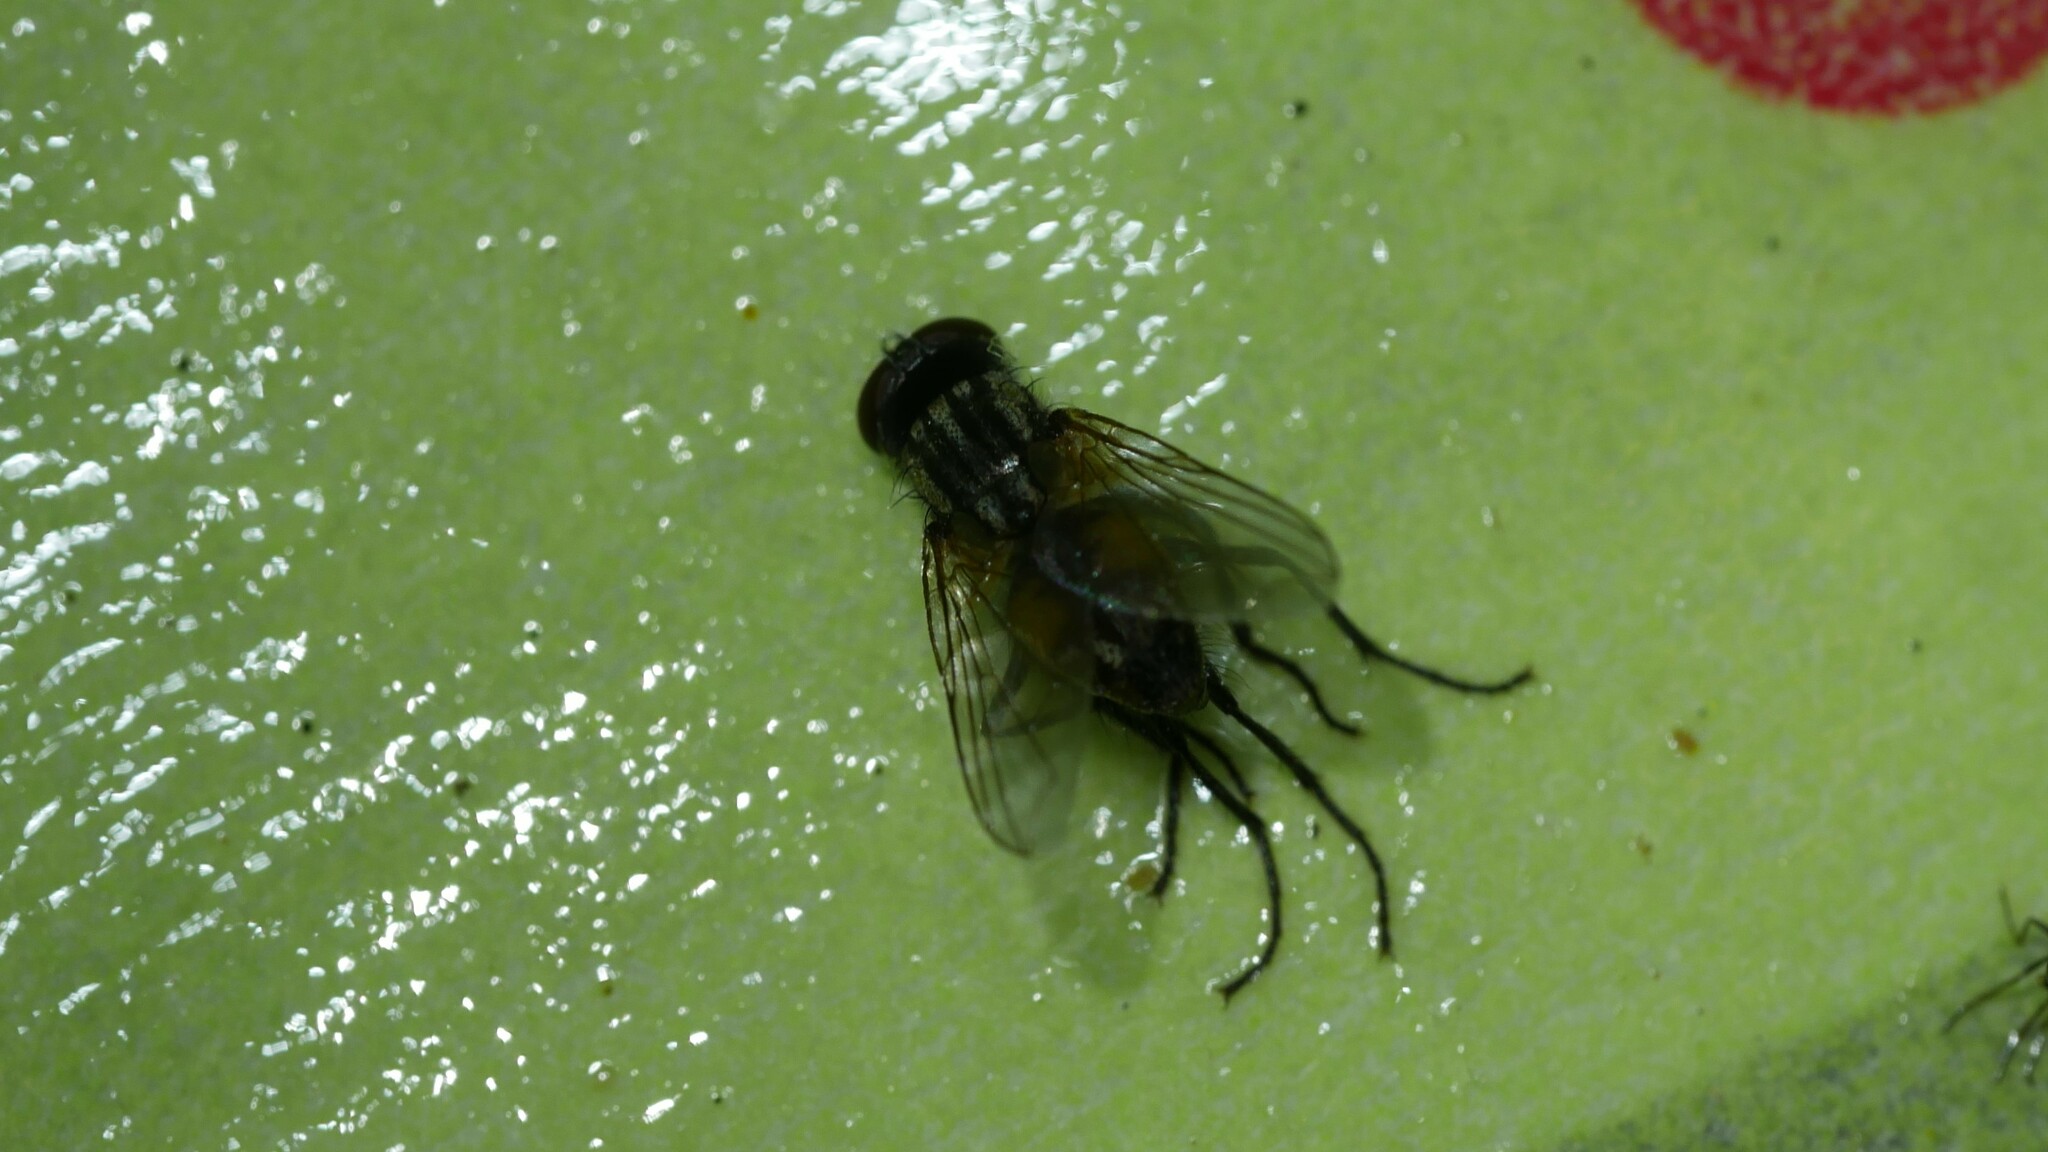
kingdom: Animalia
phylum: Arthropoda
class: Insecta
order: Diptera
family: Muscidae
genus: Musca
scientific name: Musca domestica
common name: House fly
